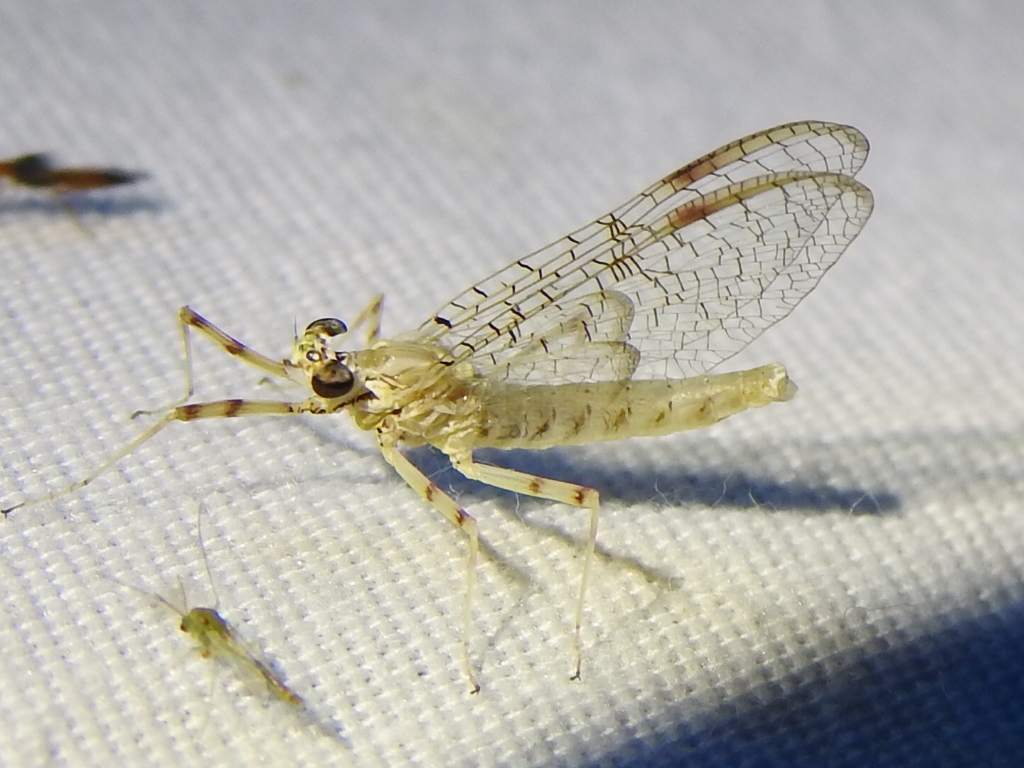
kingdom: Animalia
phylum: Arthropoda
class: Insecta
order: Ephemeroptera
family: Heptageniidae
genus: Stenonema
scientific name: Stenonema femoratum
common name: Dark cahill
